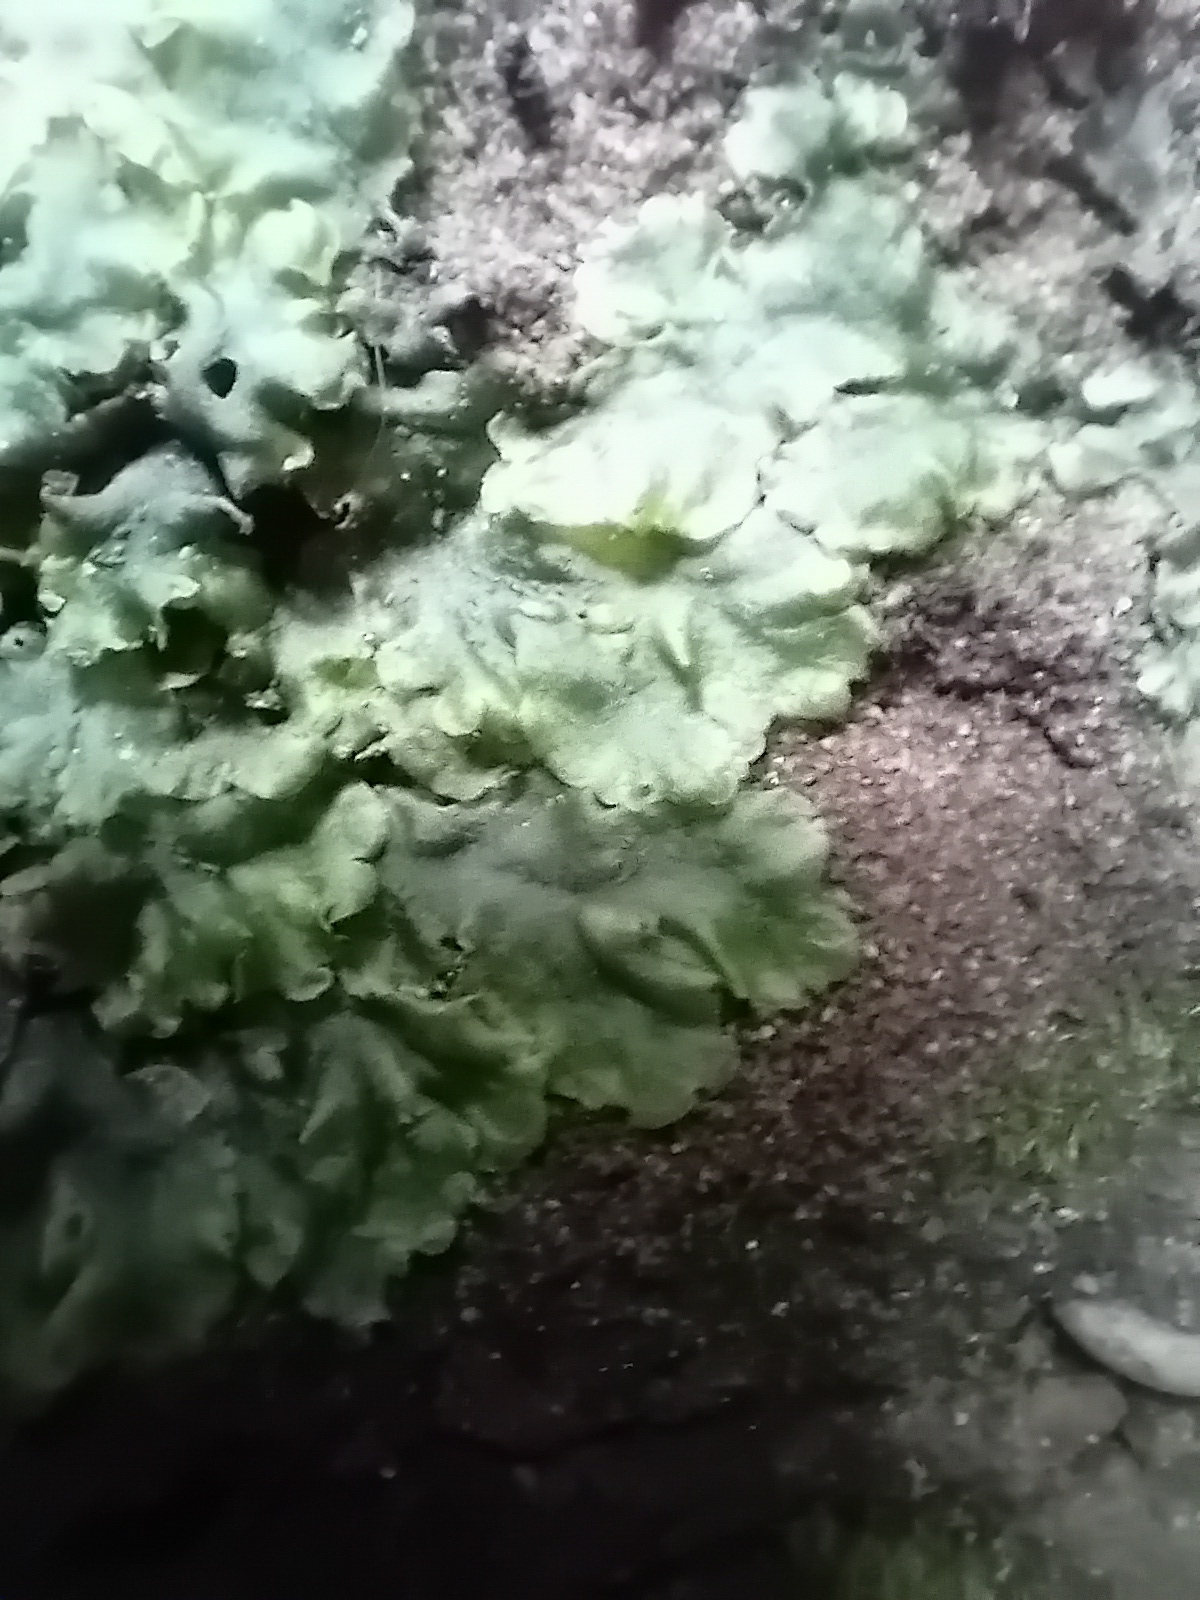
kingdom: Plantae
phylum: Marchantiophyta
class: Jungermanniopsida
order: Pelliales
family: Pelliaceae
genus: Pellia
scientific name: Pellia epiphylla
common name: Common pellia
